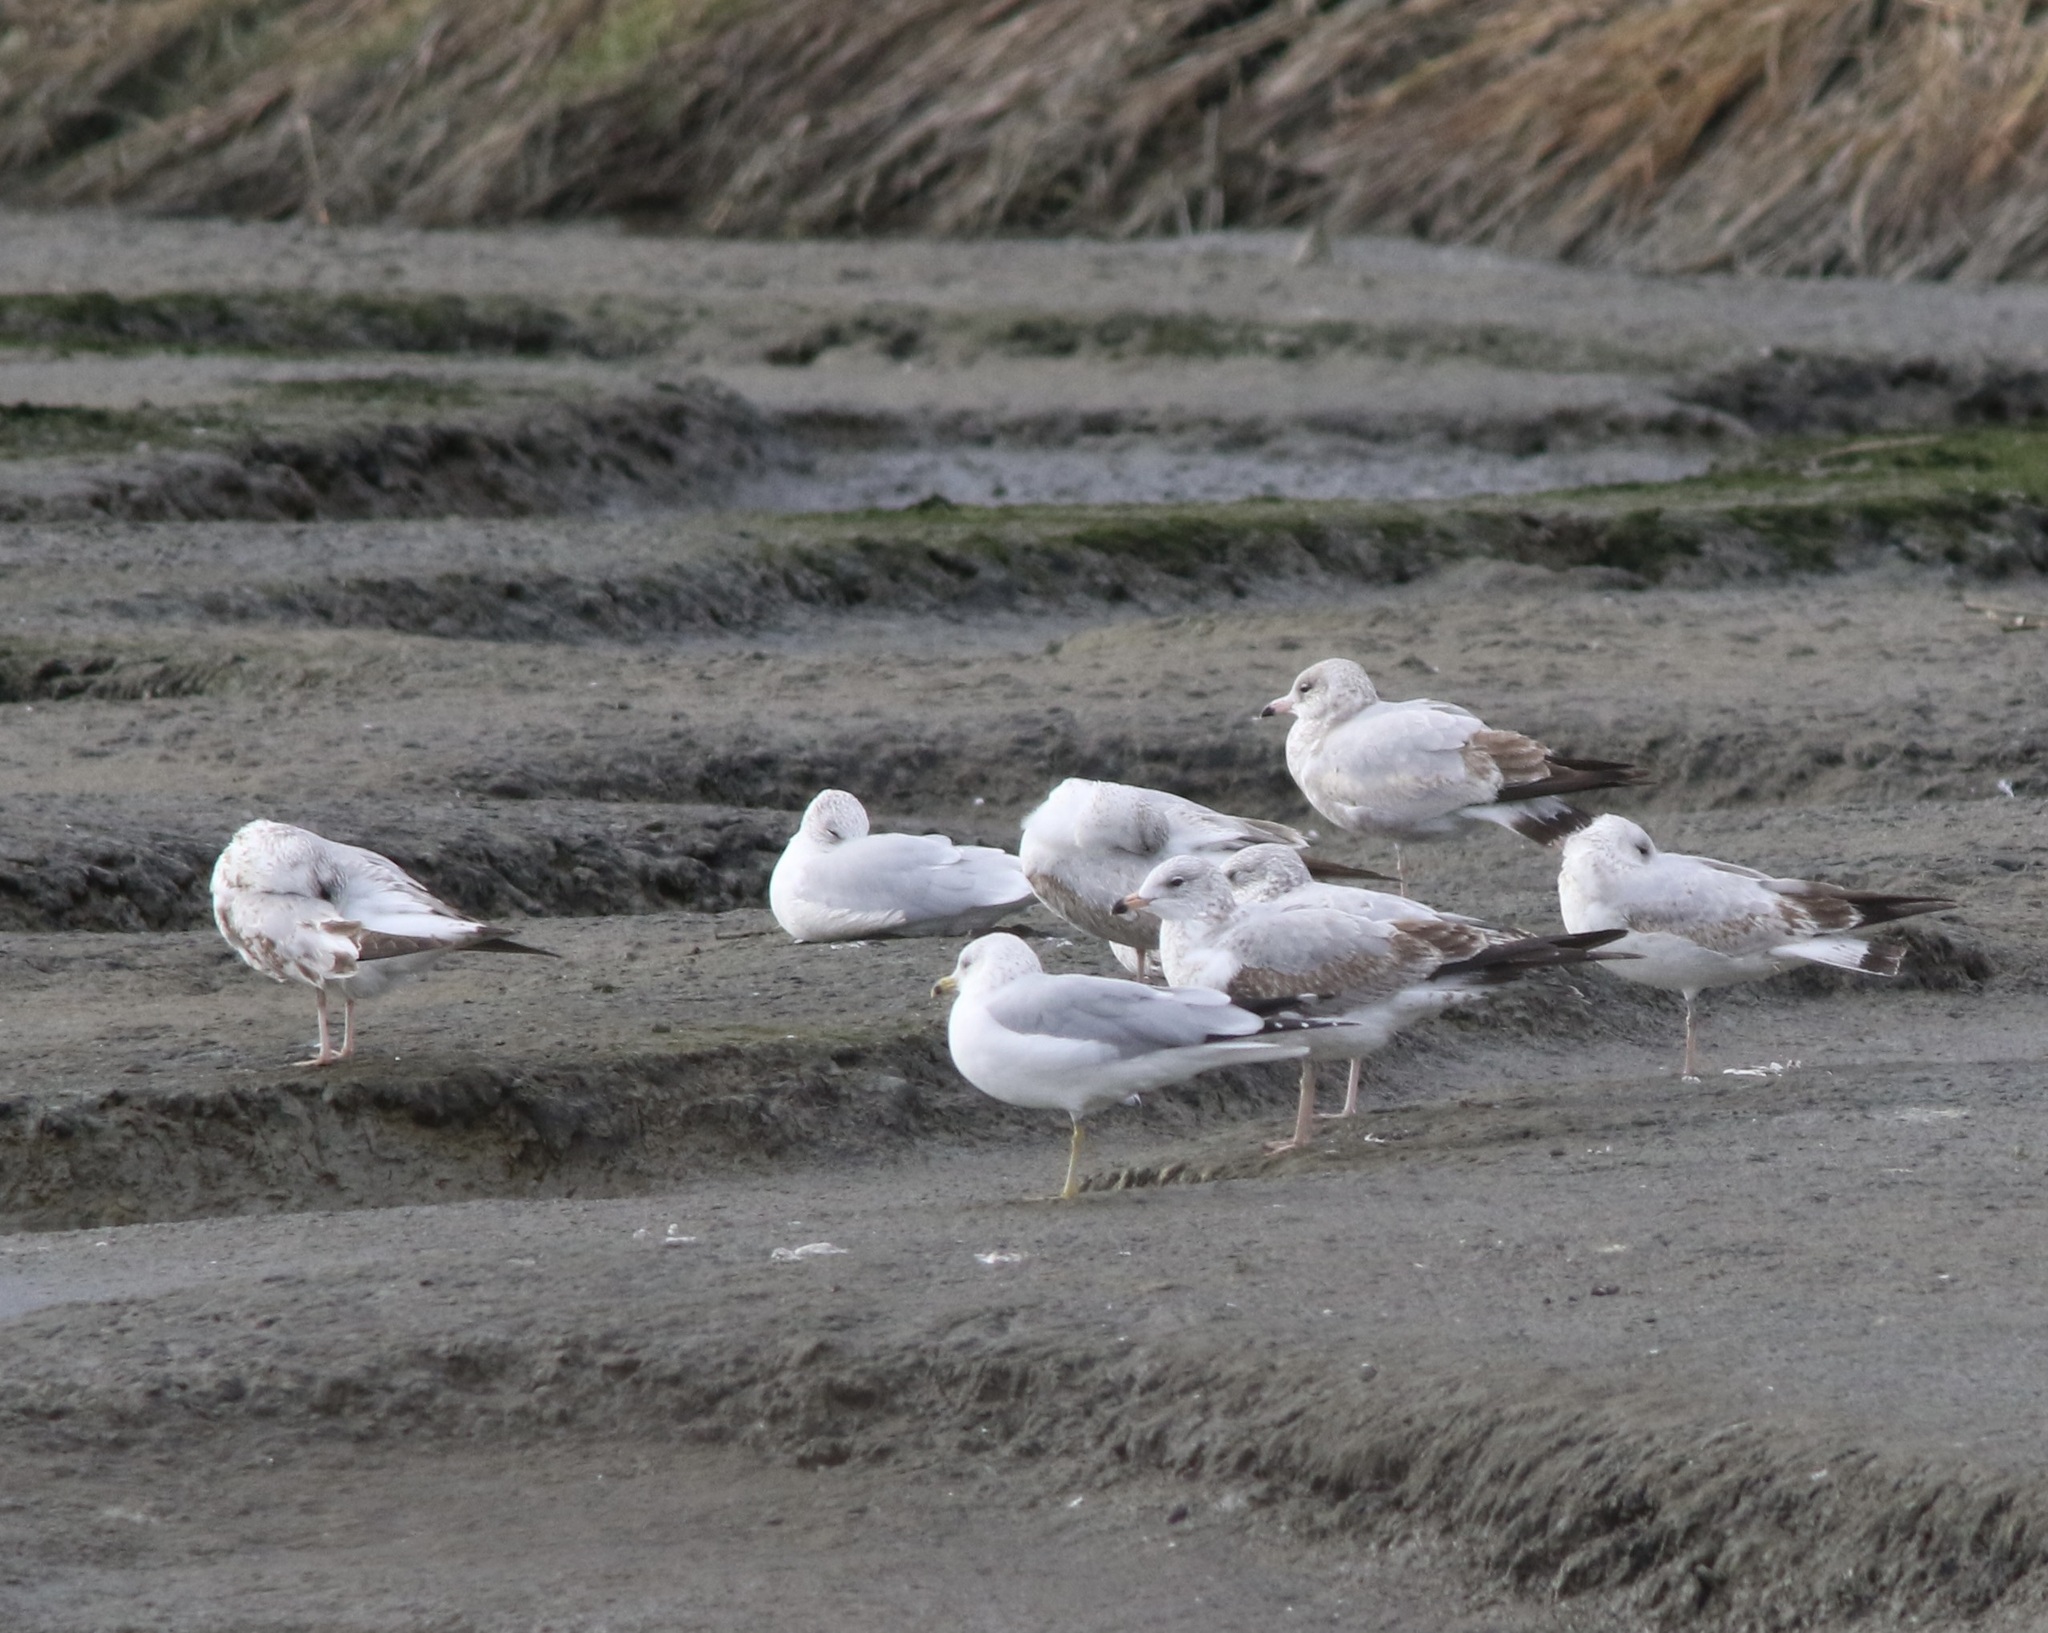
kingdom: Animalia
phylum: Chordata
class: Aves
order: Charadriiformes
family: Laridae
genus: Larus
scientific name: Larus delawarensis
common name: Ring-billed gull
